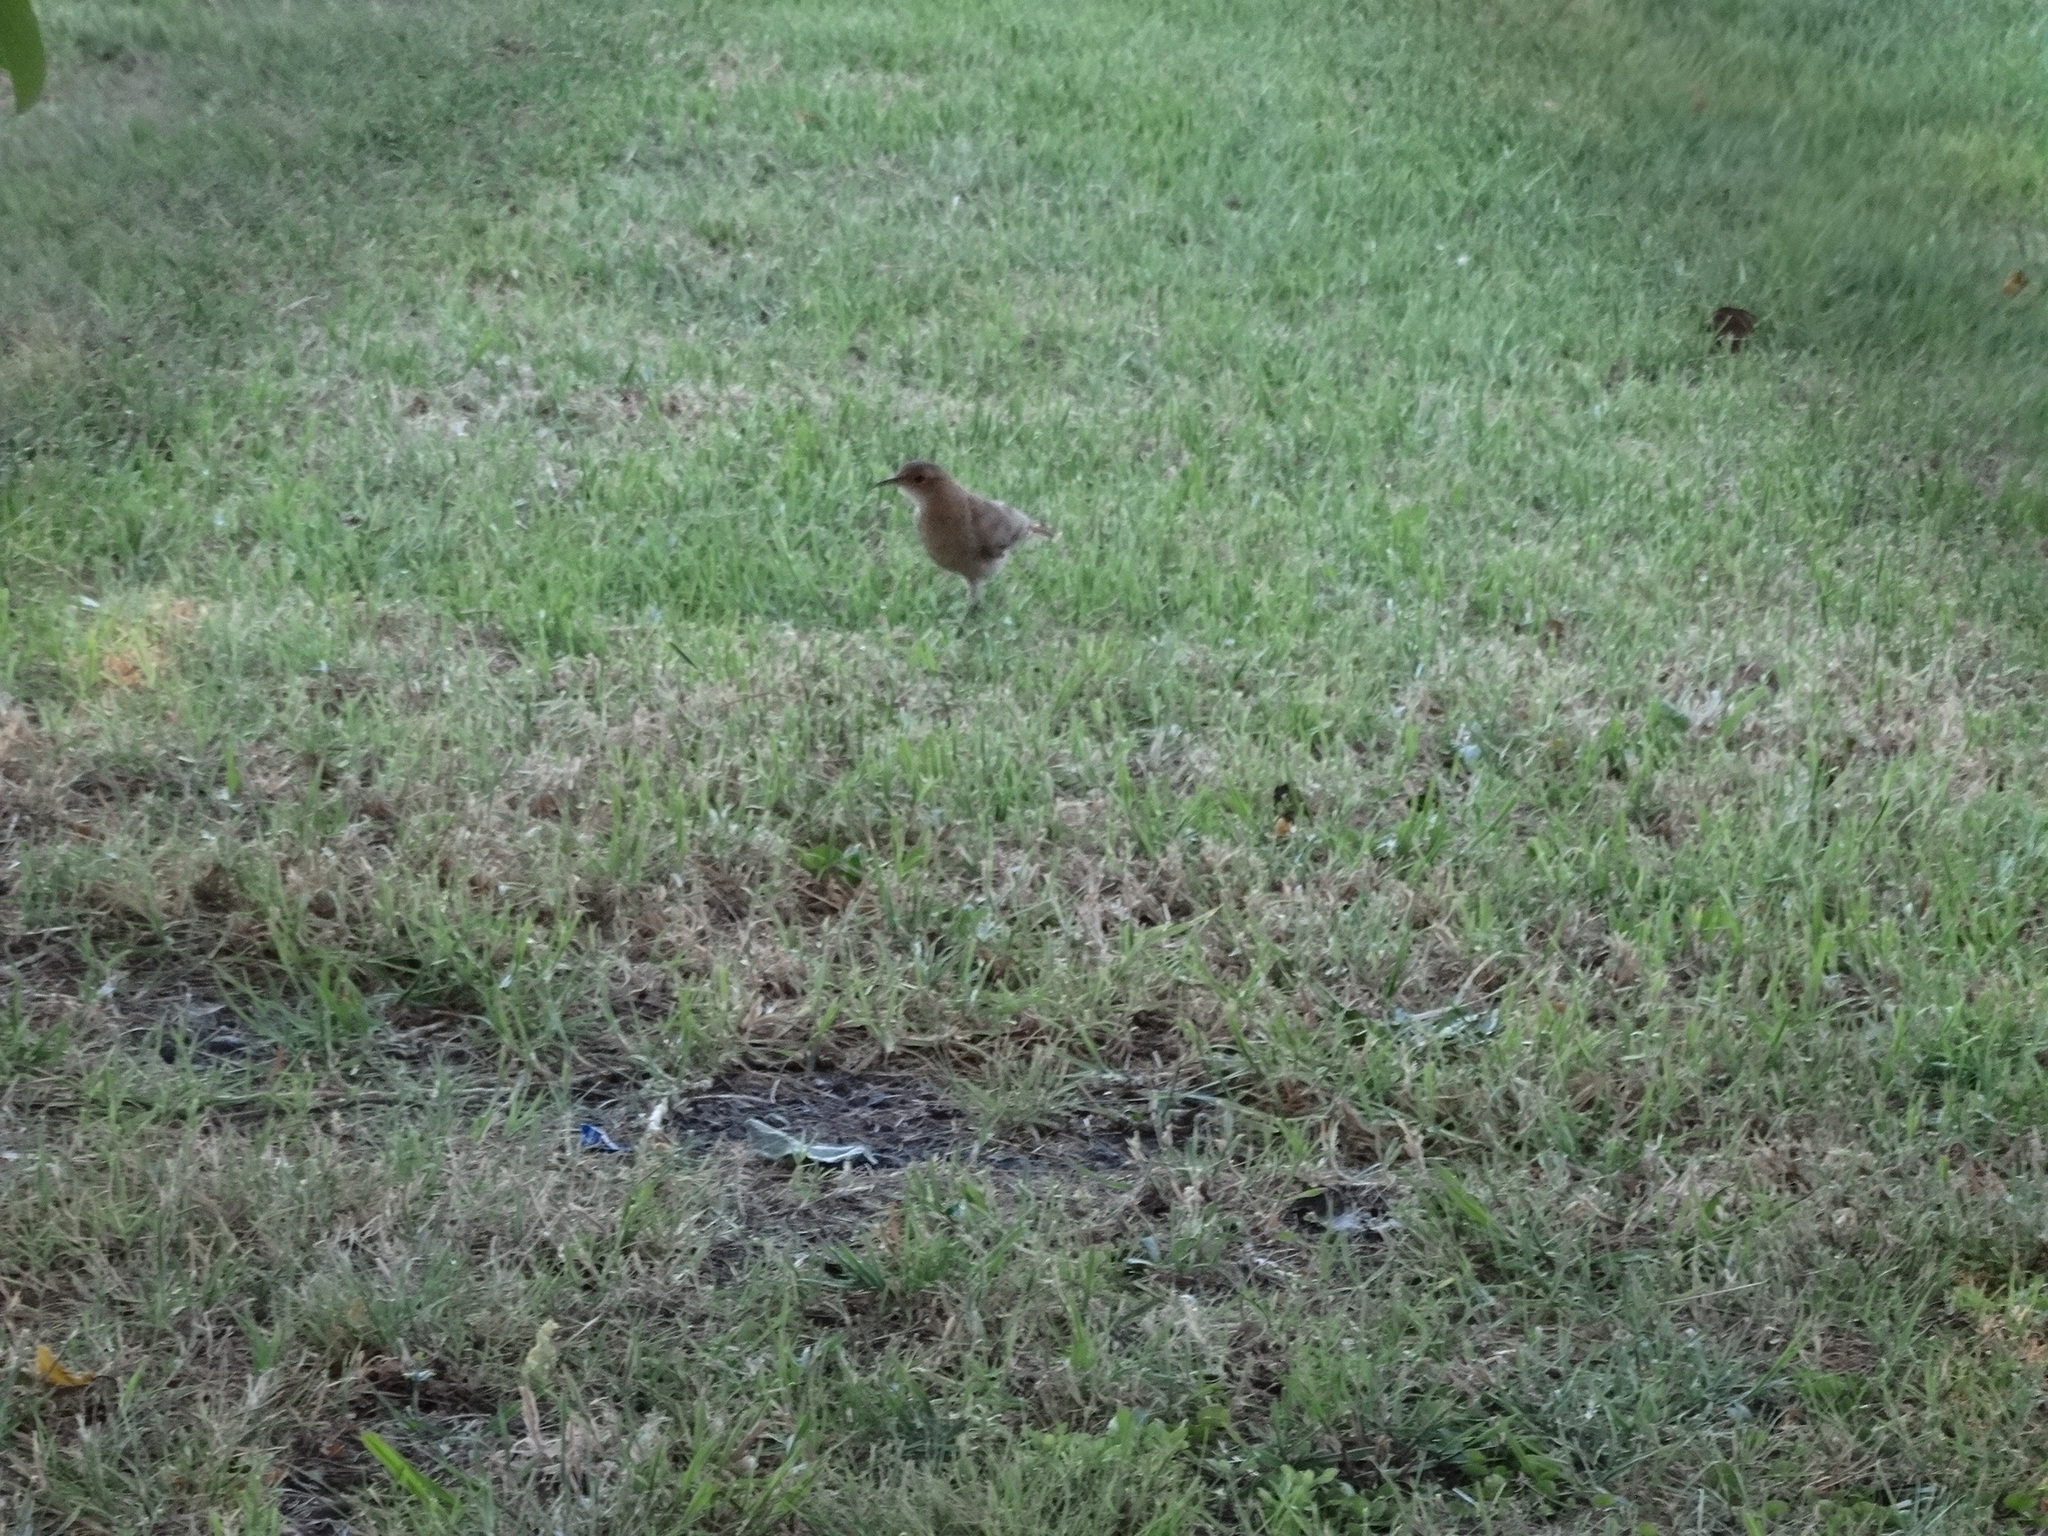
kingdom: Animalia
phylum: Chordata
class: Aves
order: Passeriformes
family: Furnariidae
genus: Furnarius
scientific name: Furnarius rufus
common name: Rufous hornero
